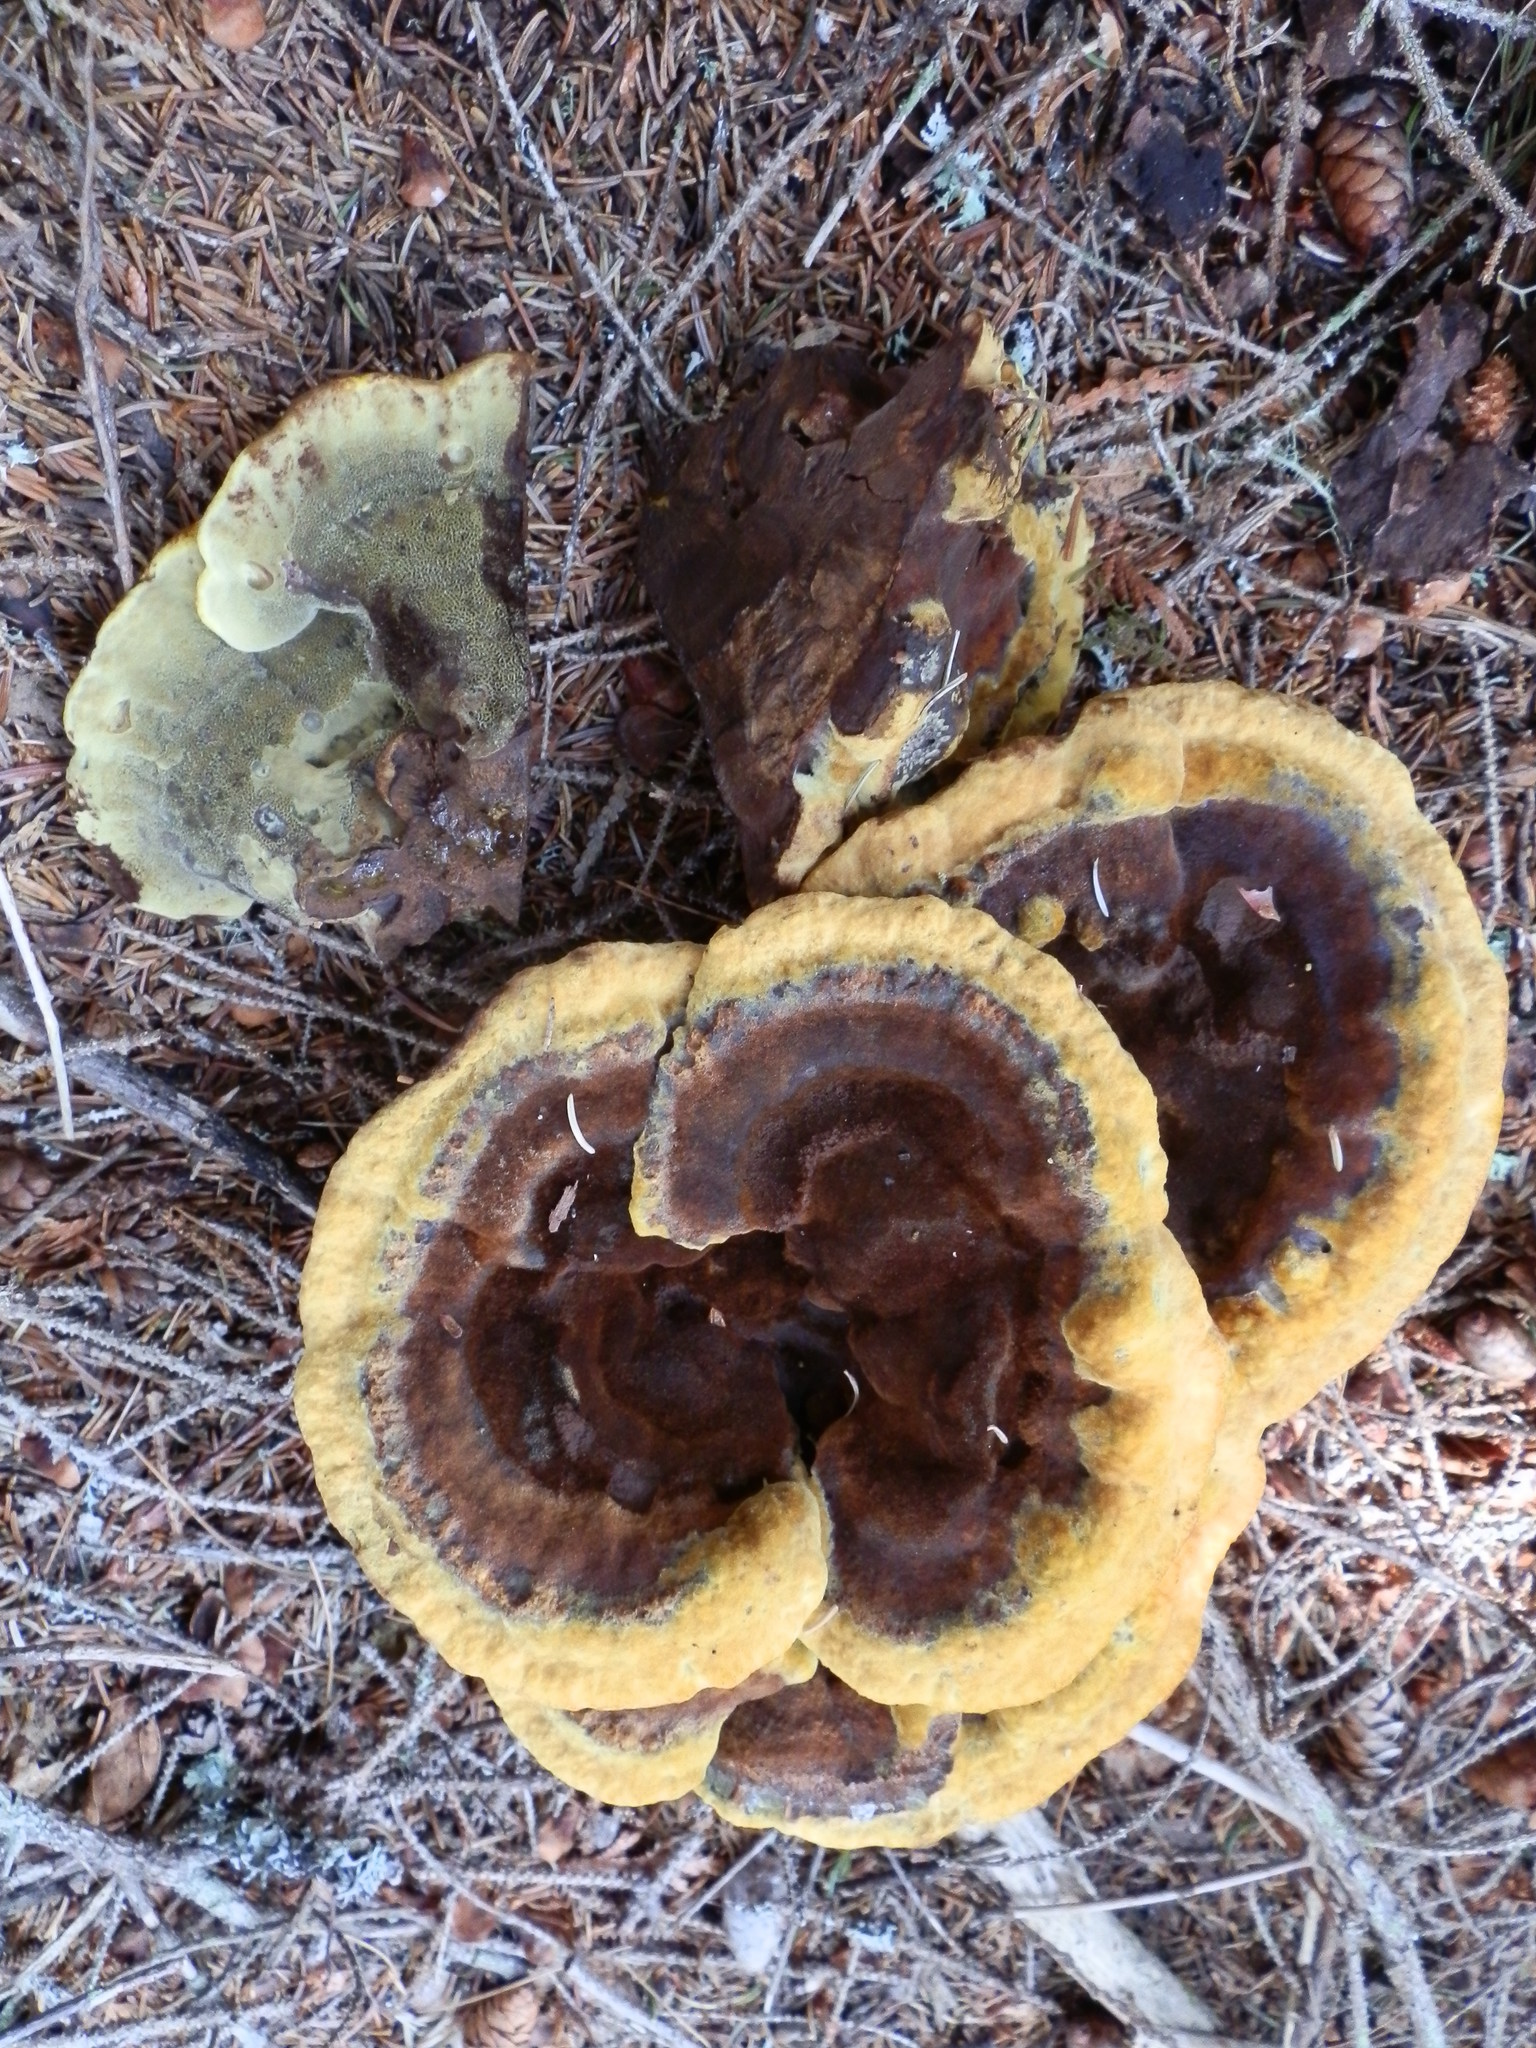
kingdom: Fungi
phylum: Basidiomycota
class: Agaricomycetes
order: Polyporales
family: Laetiporaceae
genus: Phaeolus
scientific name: Phaeolus schweinitzii
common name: Dyer's mazegill
